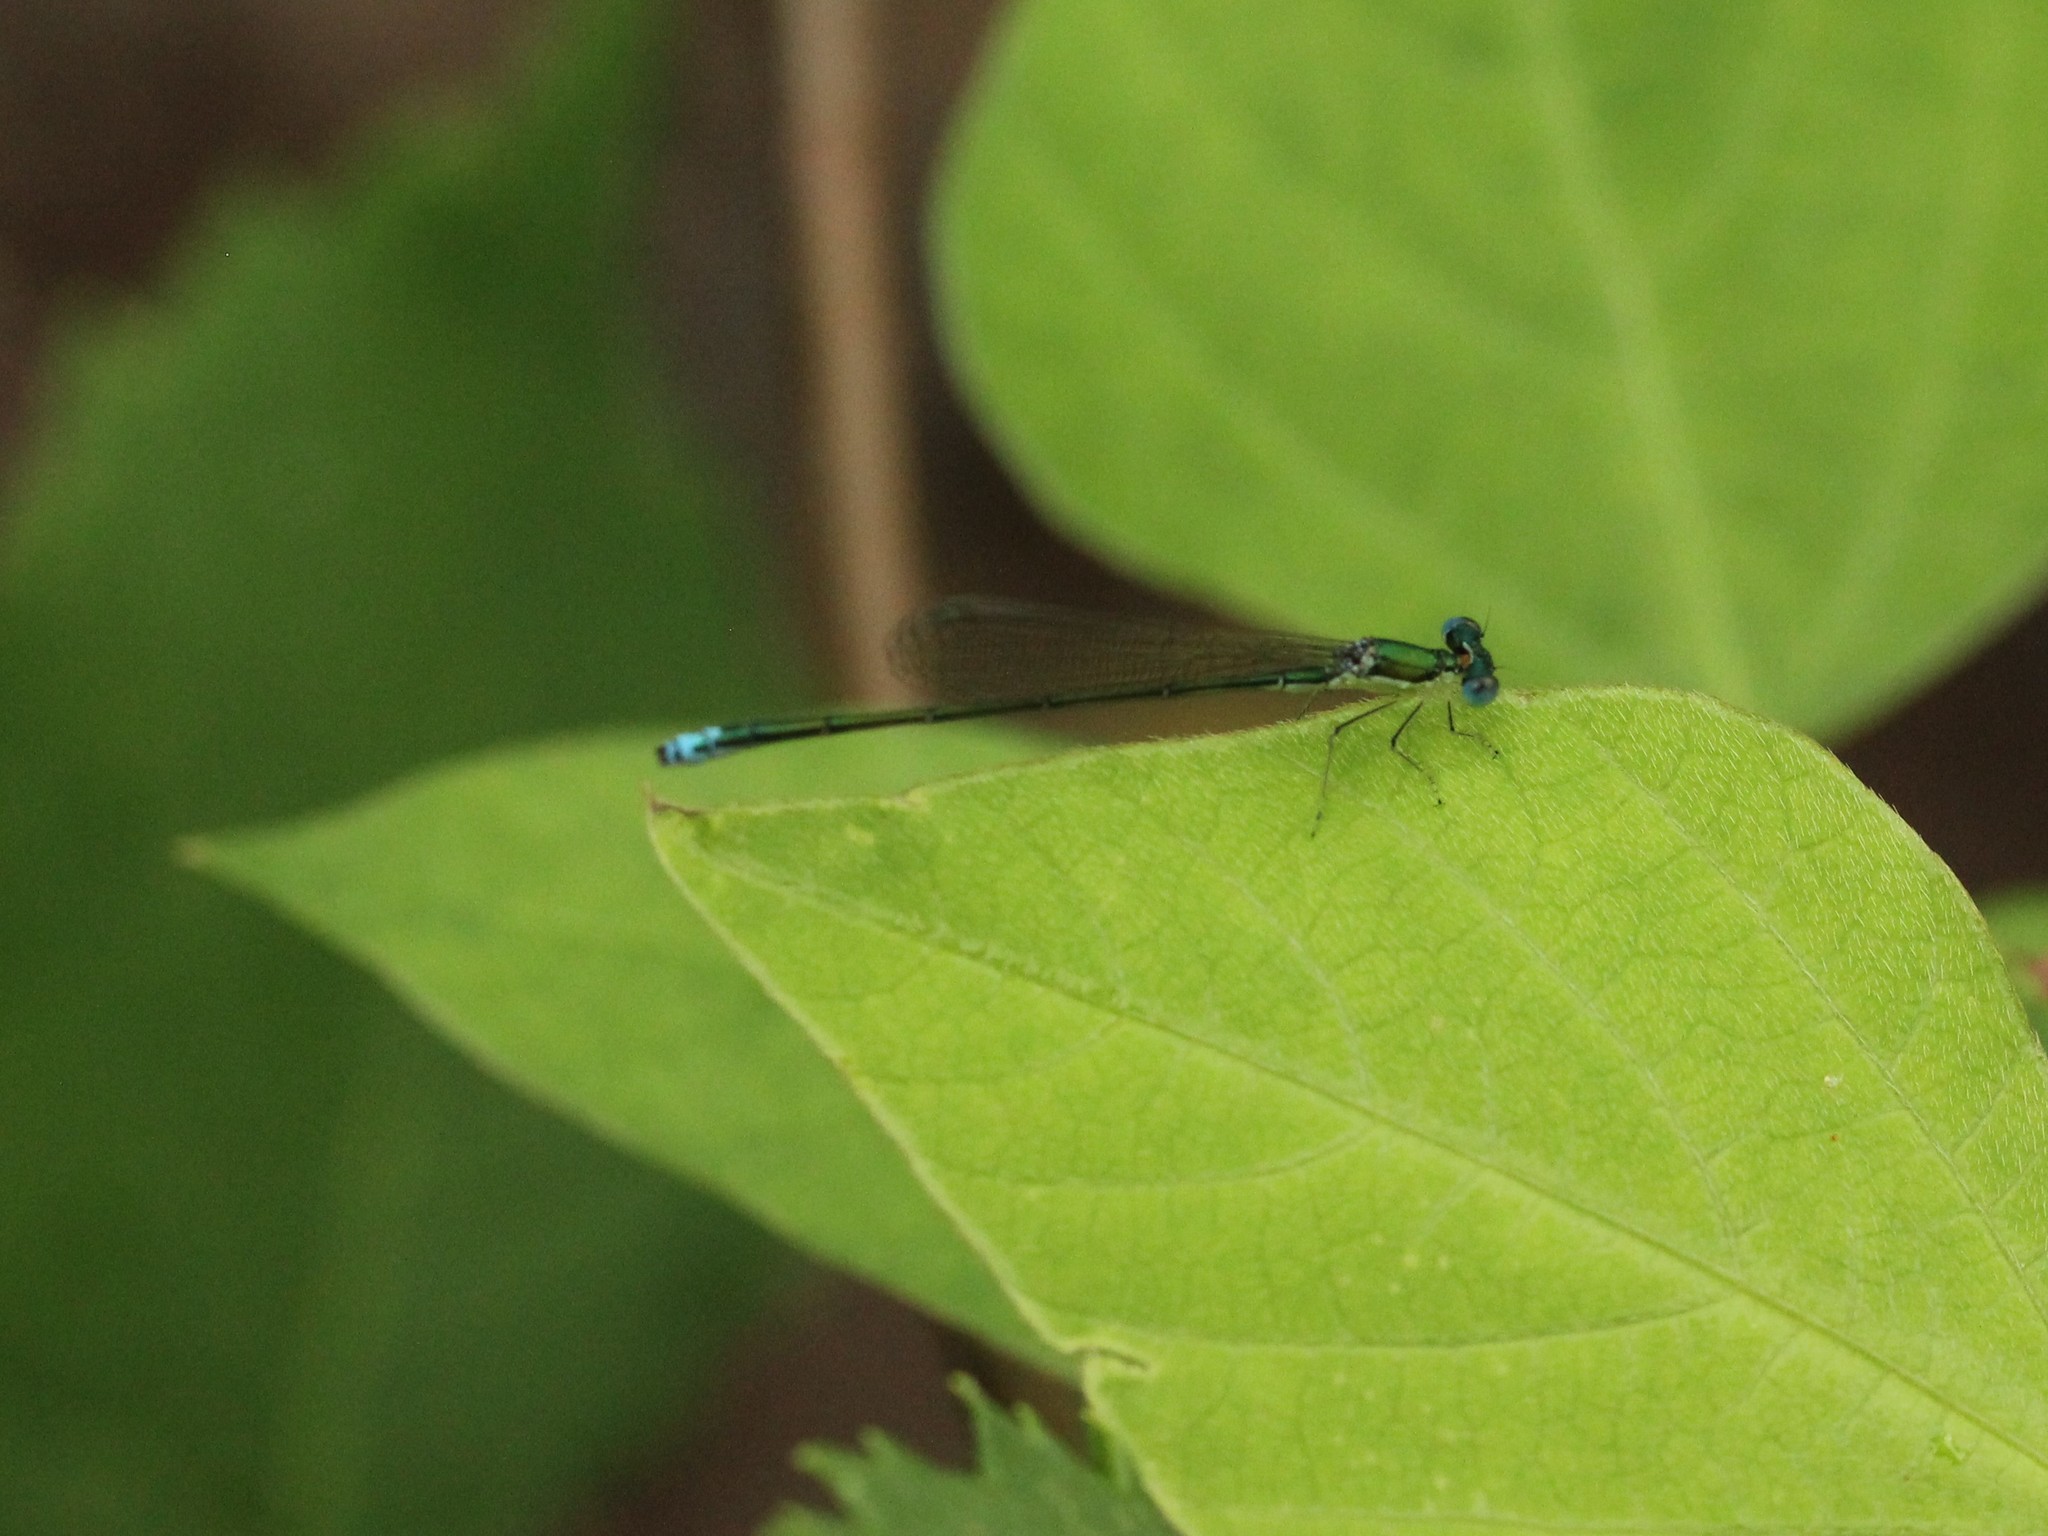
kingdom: Animalia
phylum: Arthropoda
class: Insecta
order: Odonata
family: Coenagrionidae
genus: Nehalennia
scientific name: Nehalennia irene
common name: Sedge sprite
